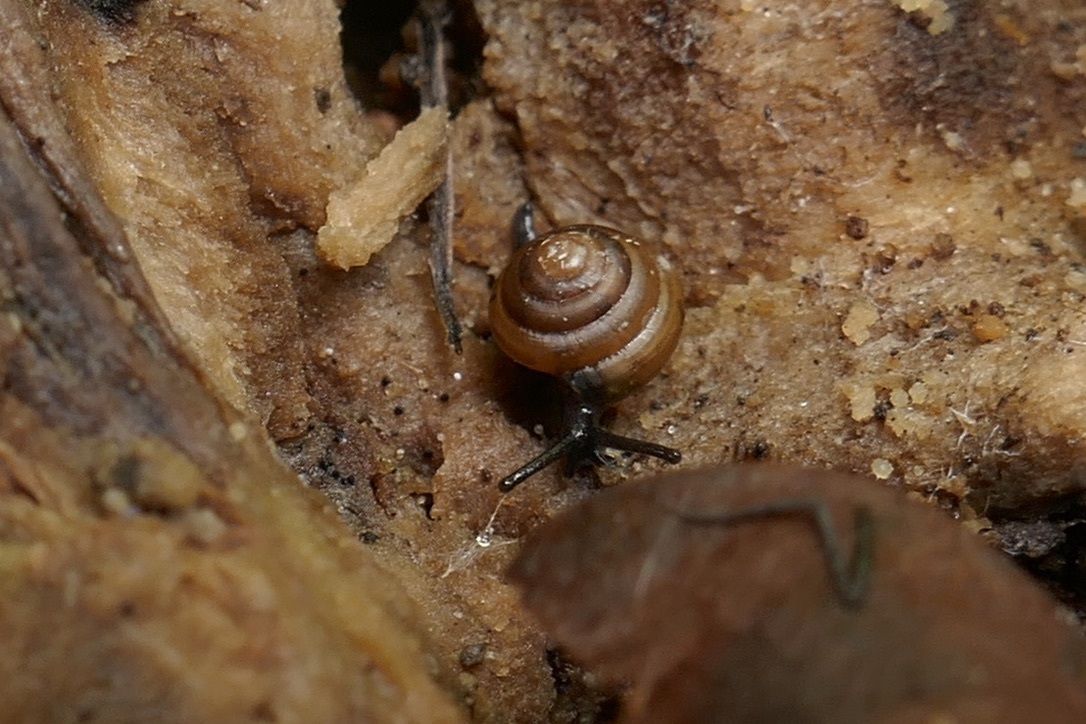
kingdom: Animalia
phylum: Mollusca
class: Gastropoda
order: Stylommatophora
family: Euconulidae
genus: Euconulus
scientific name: Euconulus fulvus
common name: Tawny glass snail
